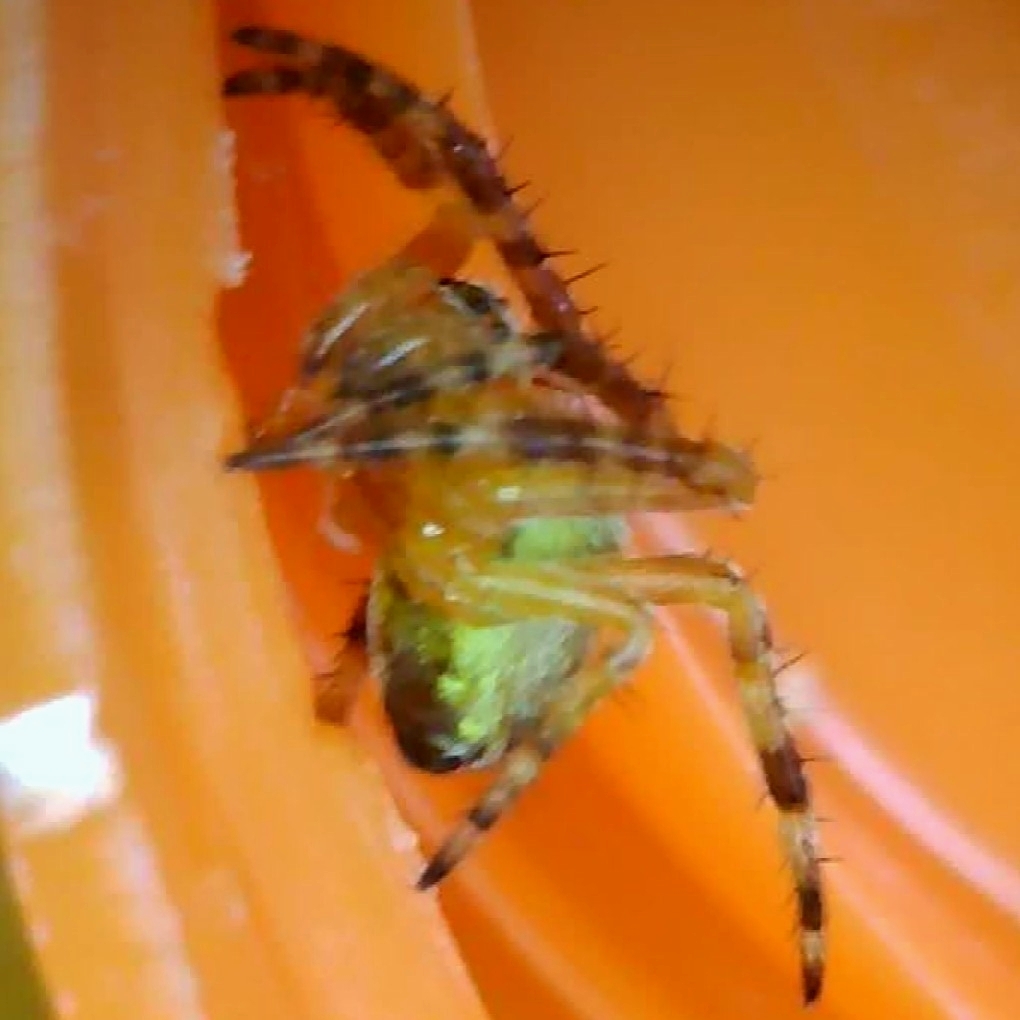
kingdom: Animalia
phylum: Arthropoda
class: Arachnida
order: Araneae
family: Araneidae
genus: Araneus
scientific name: Araneus diadematus
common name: Cross orbweaver
